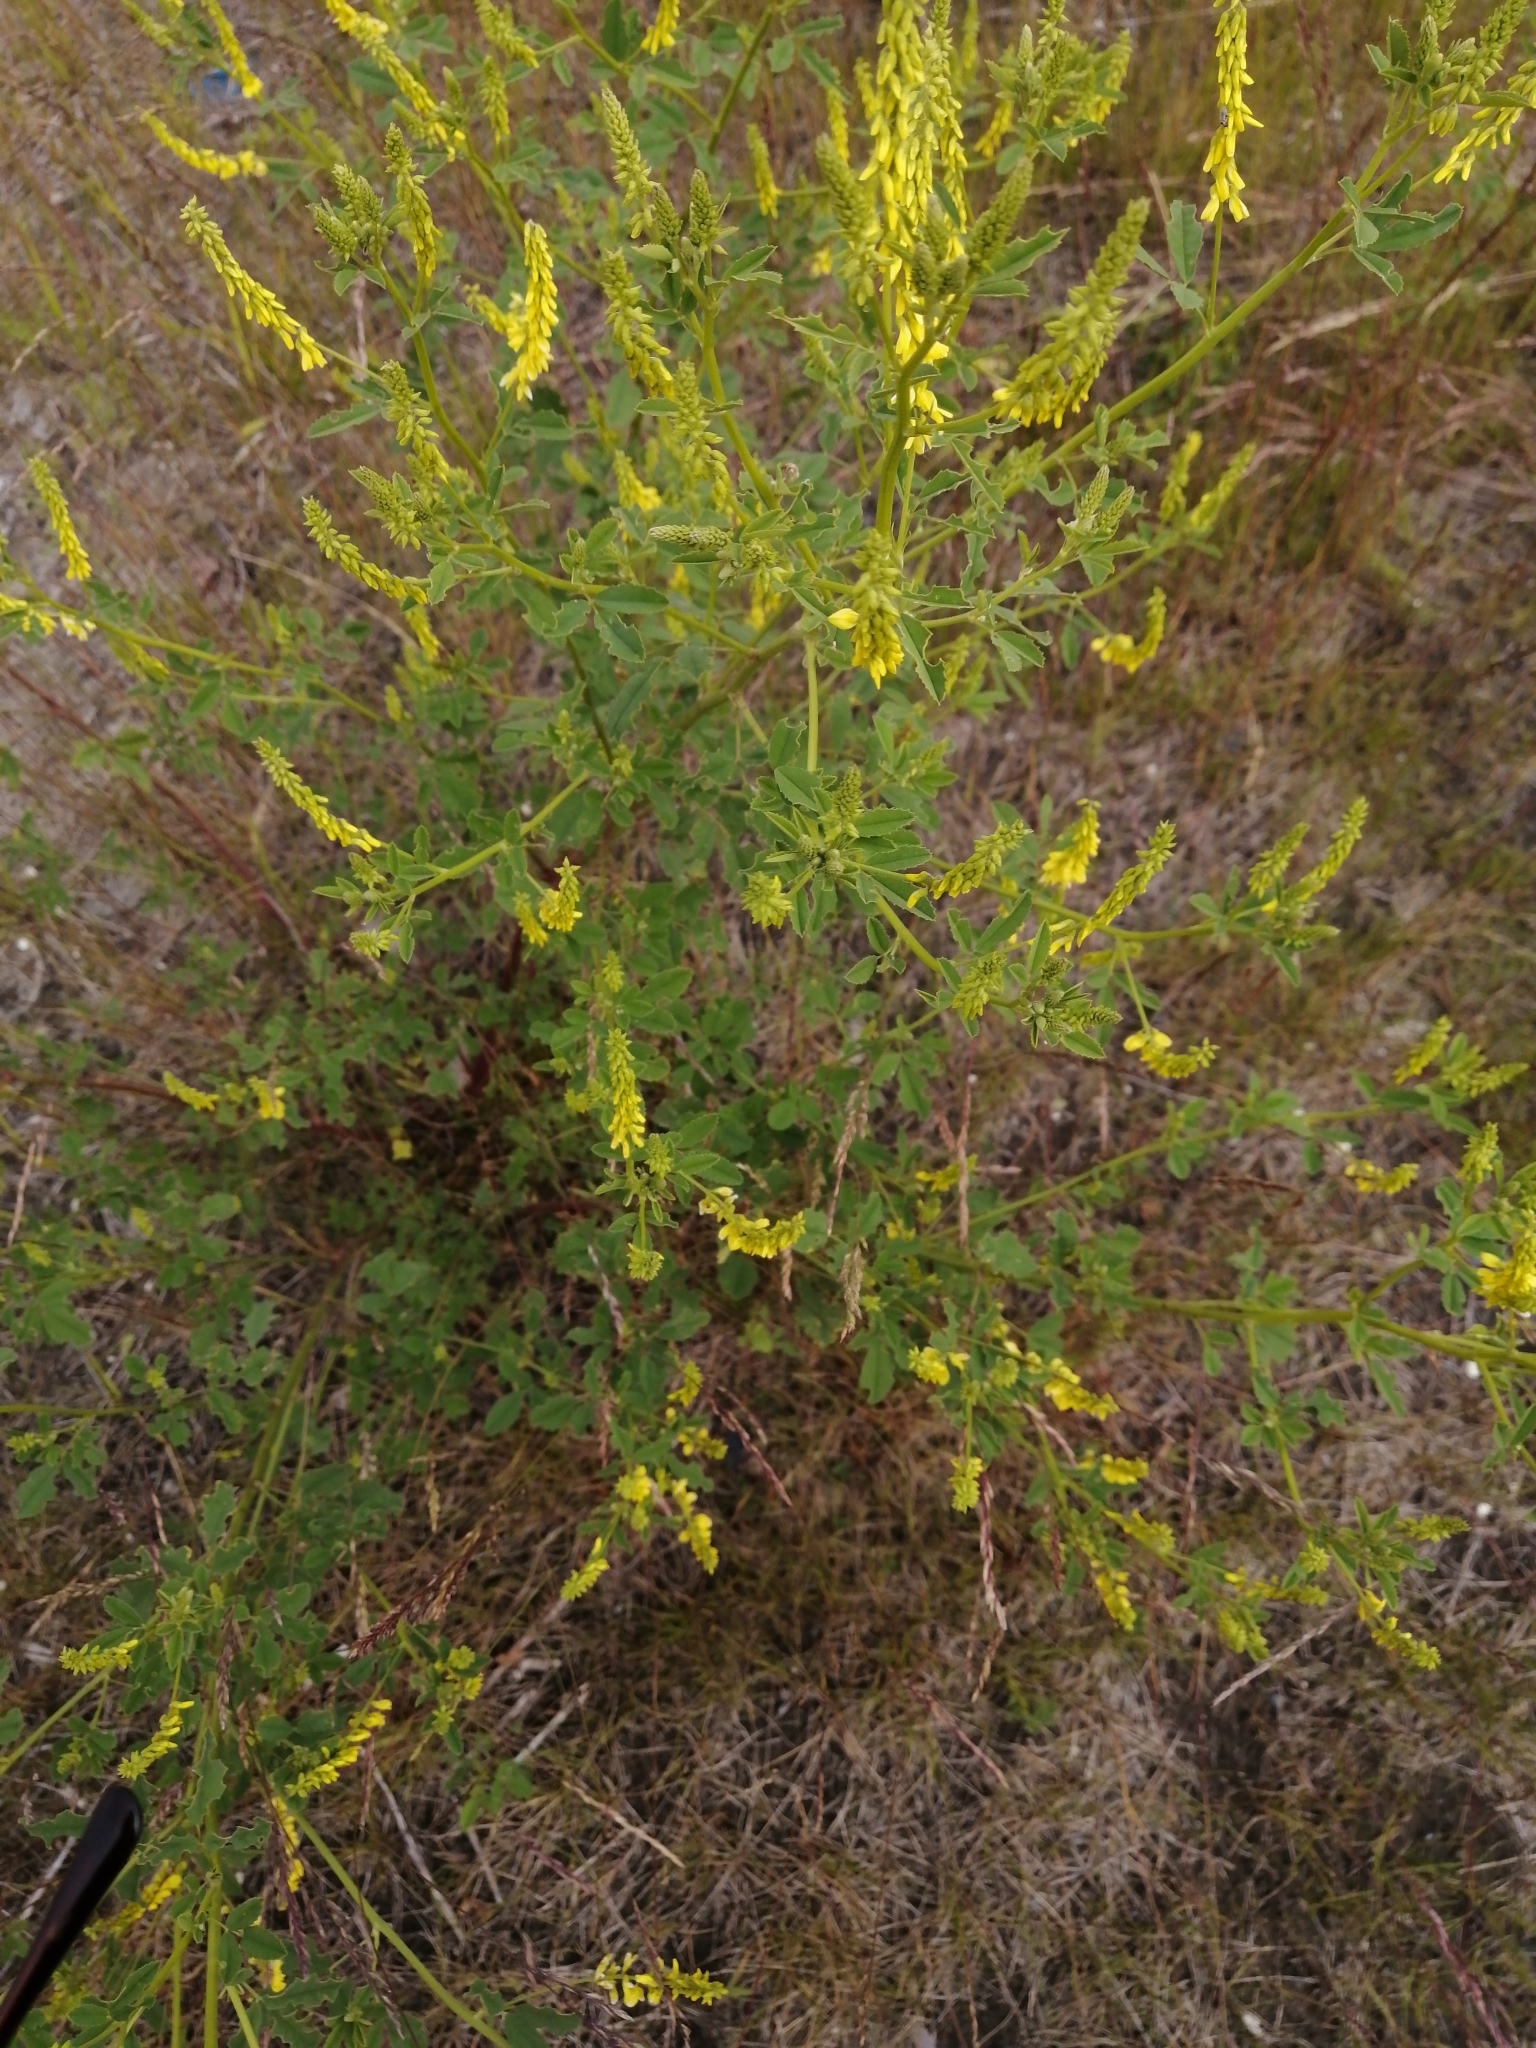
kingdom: Plantae
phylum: Tracheophyta
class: Magnoliopsida
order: Fabales
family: Fabaceae
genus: Melilotus
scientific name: Melilotus officinalis
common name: Sweetclover
